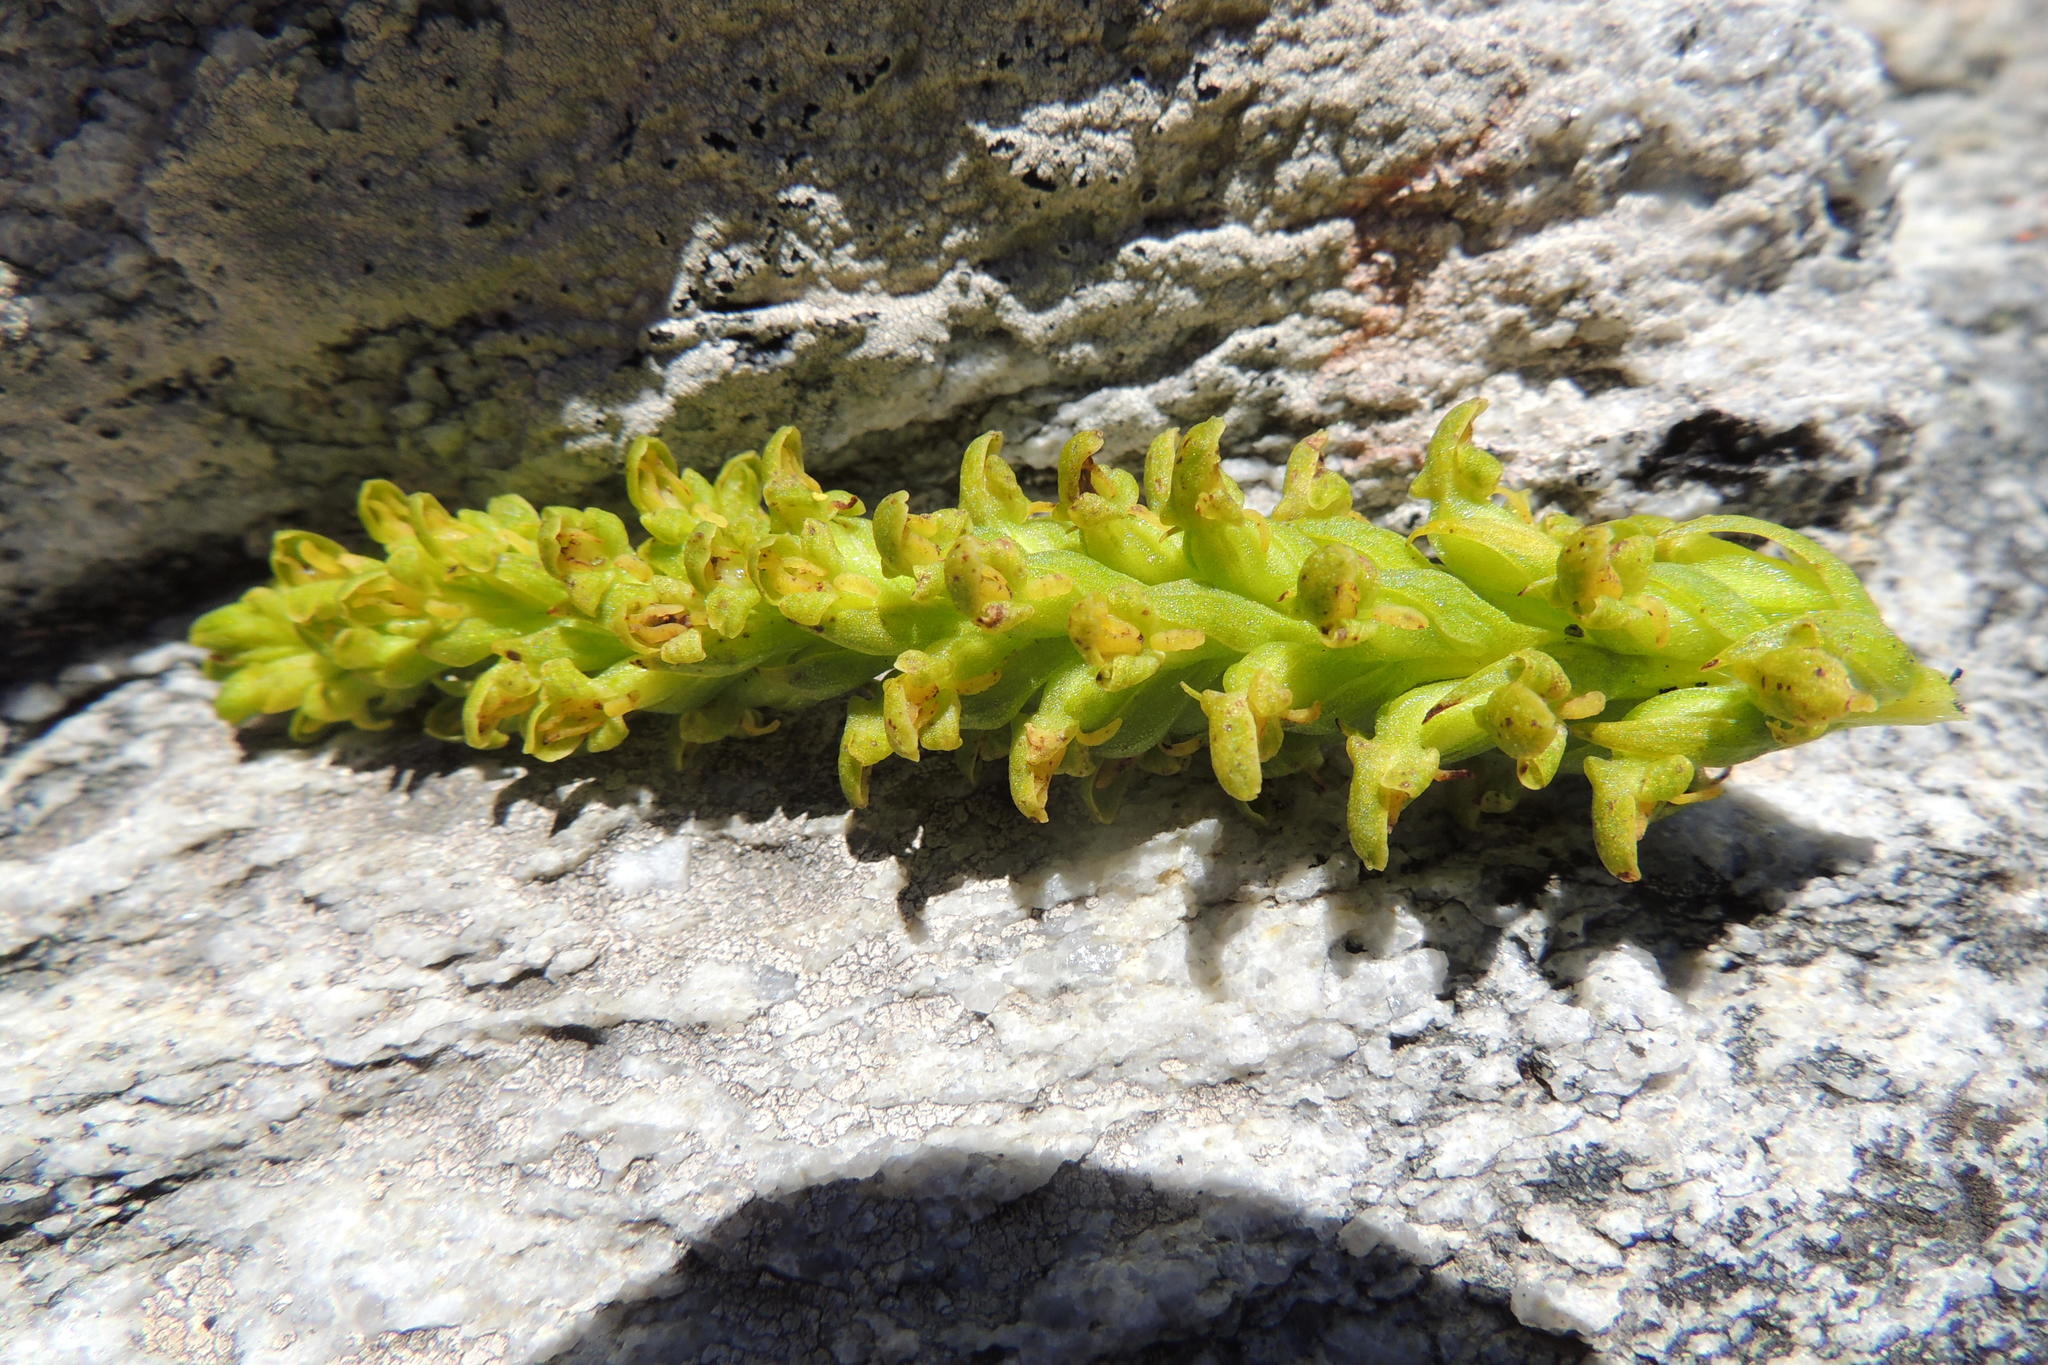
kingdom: Plantae
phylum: Tracheophyta
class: Liliopsida
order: Asparagales
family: Orchidaceae
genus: Disa
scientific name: Disa cylindrica
